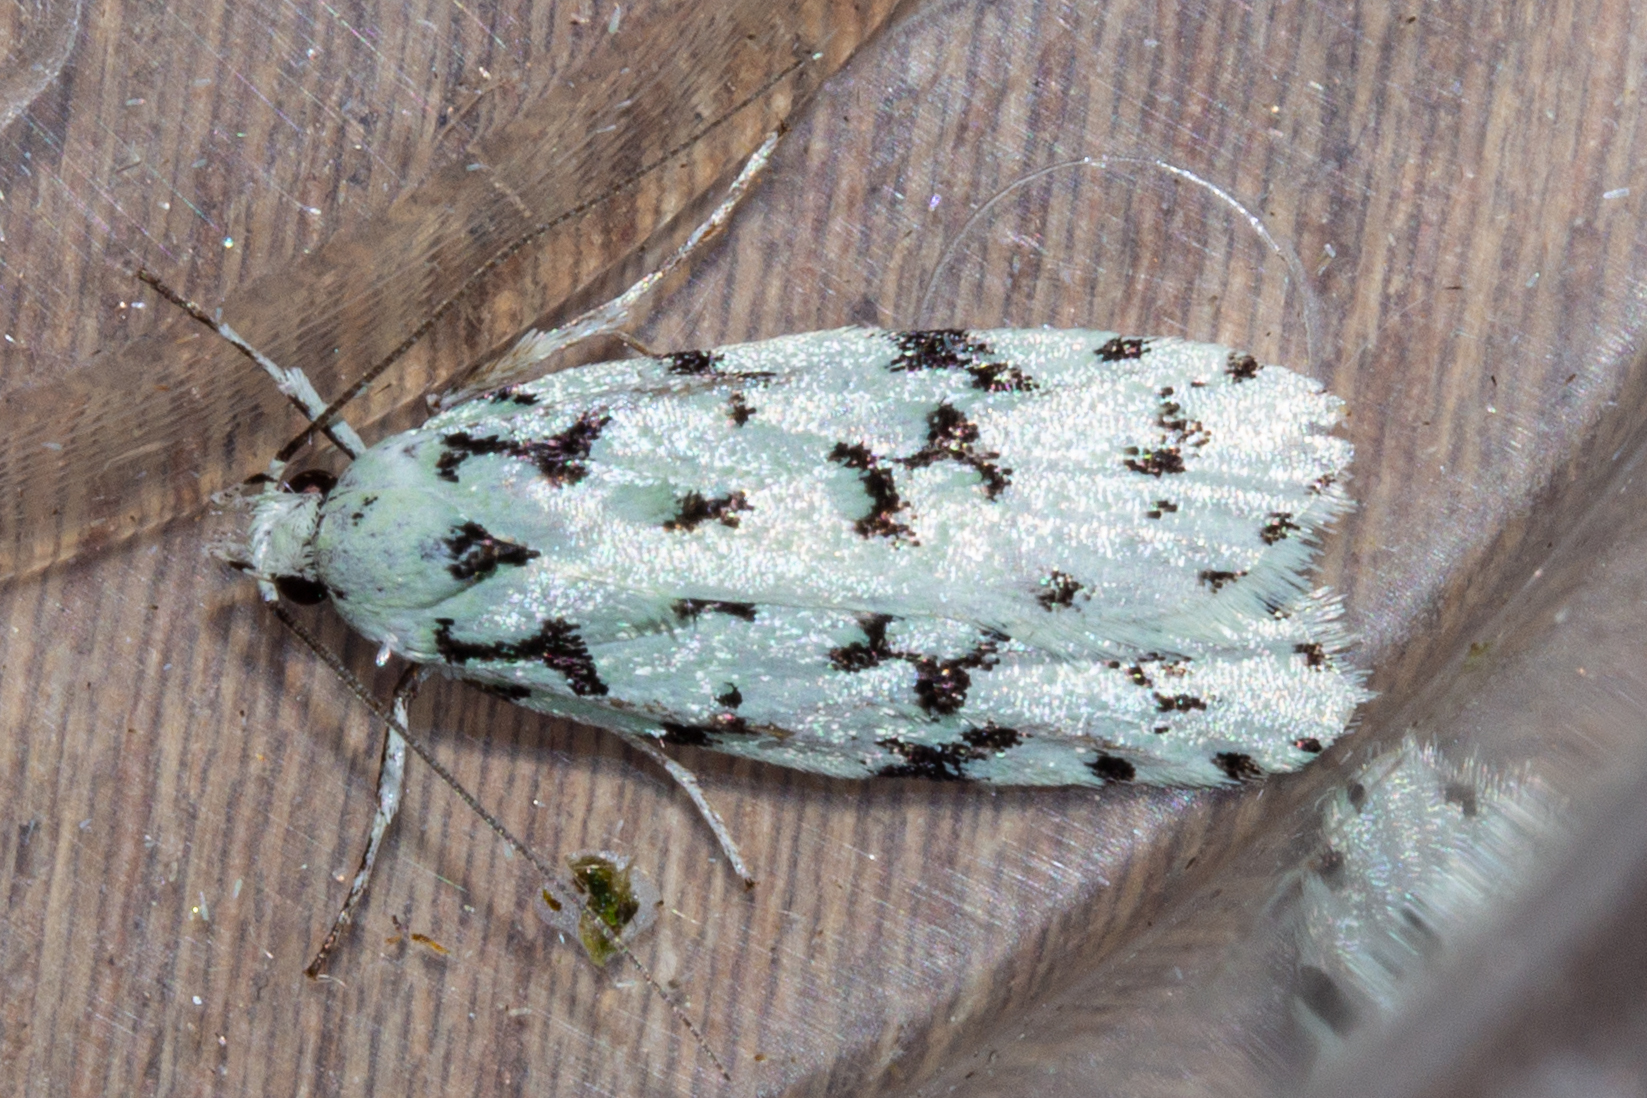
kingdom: Animalia
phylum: Arthropoda
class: Insecta
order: Lepidoptera
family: Oecophoridae
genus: Izatha
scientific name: Izatha huttoni
